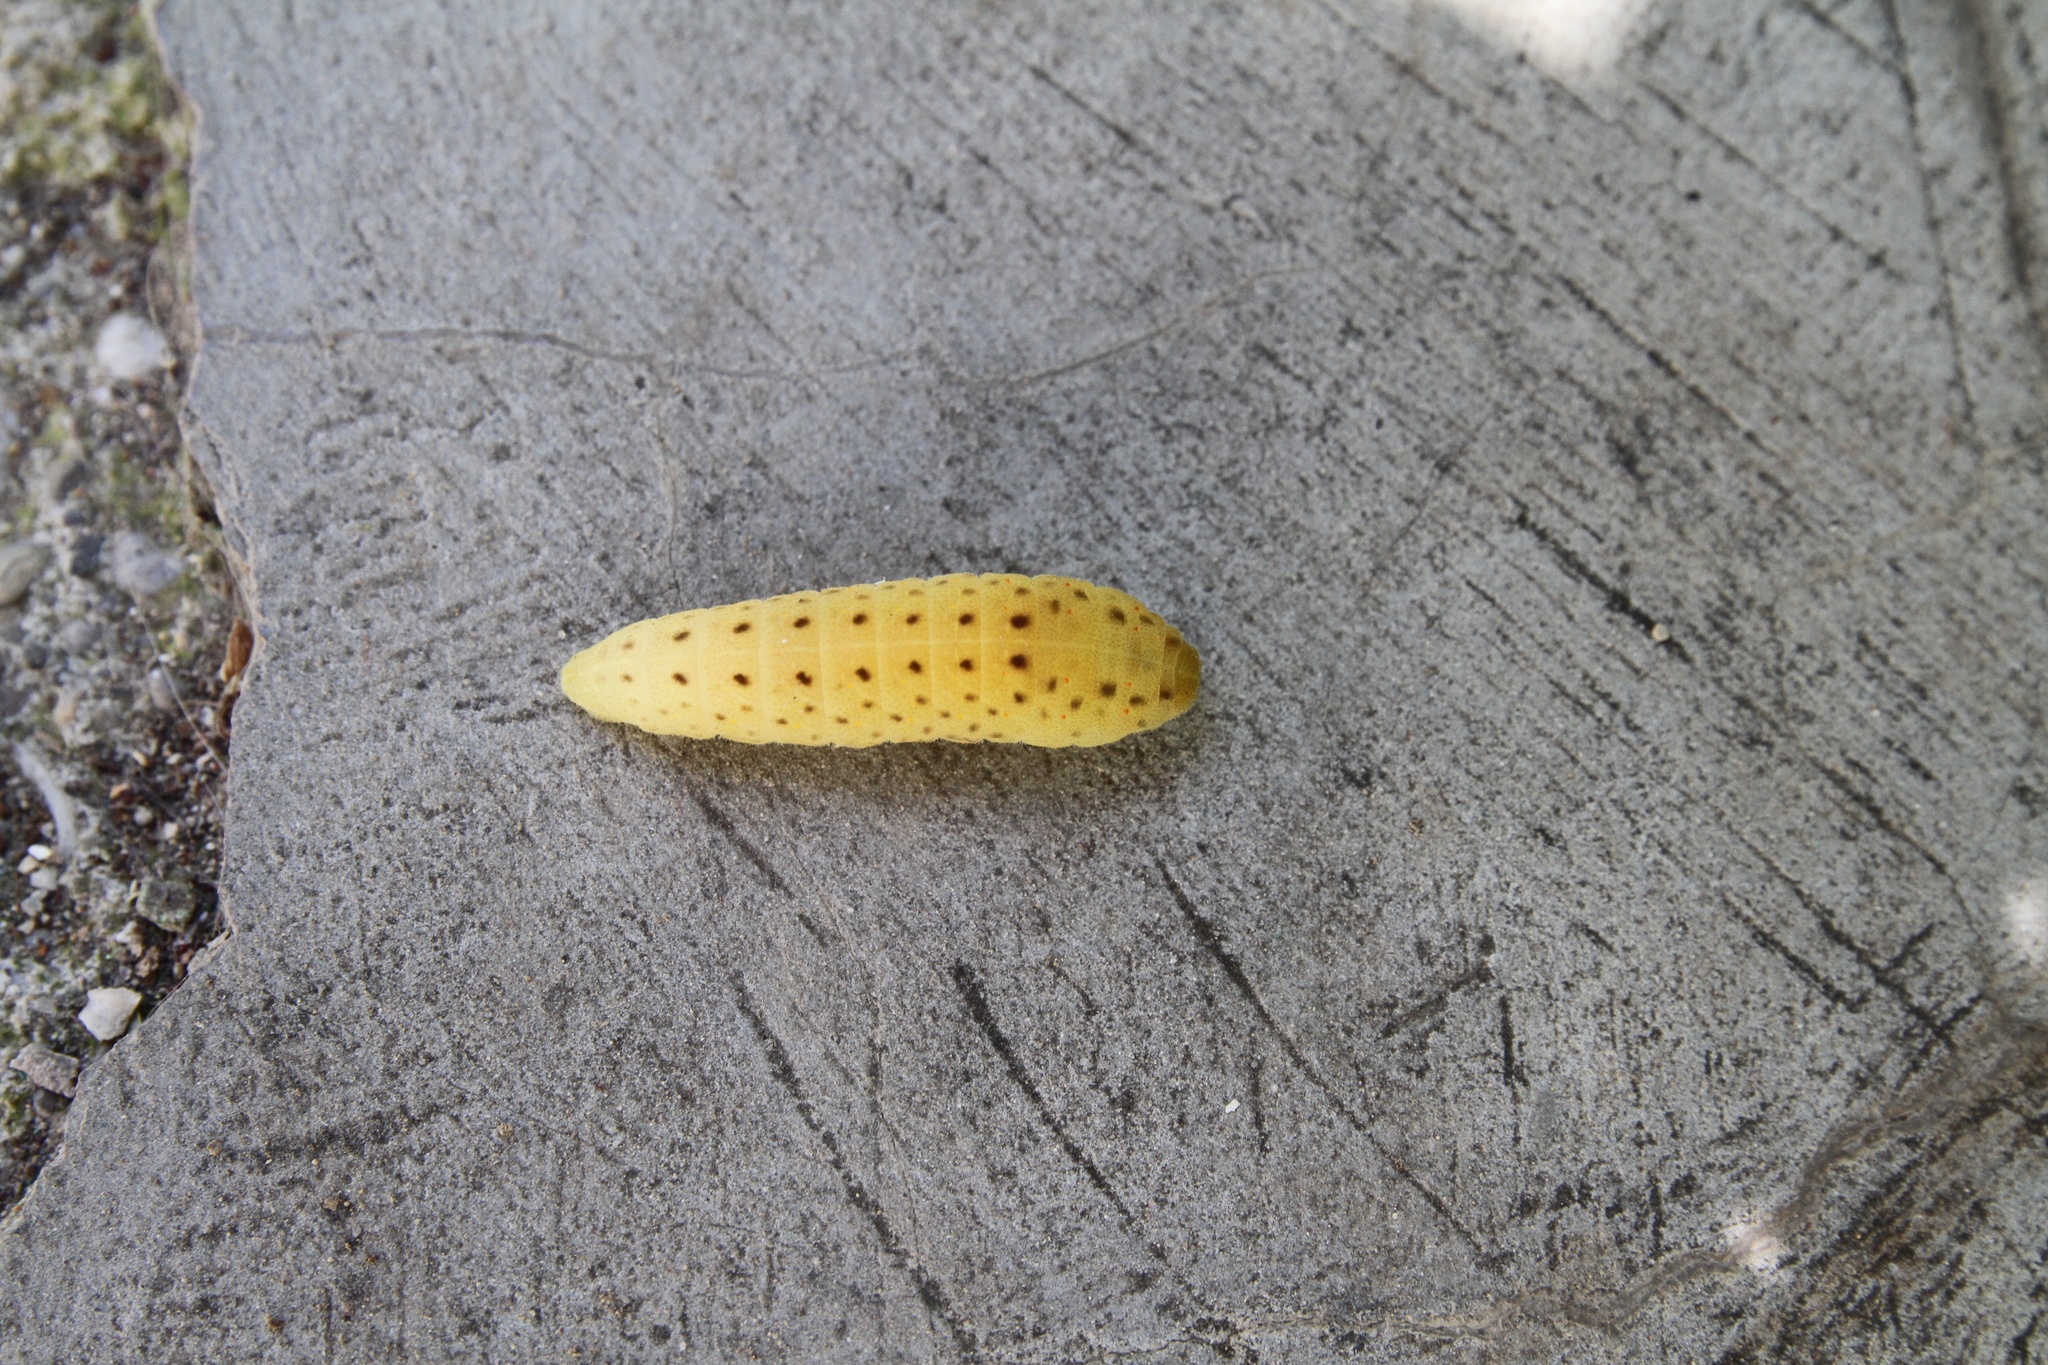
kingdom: Animalia
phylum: Arthropoda
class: Insecta
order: Lepidoptera
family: Papilionidae
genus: Iphiclides
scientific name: Iphiclides podalirius
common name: Scarce swallowtail
